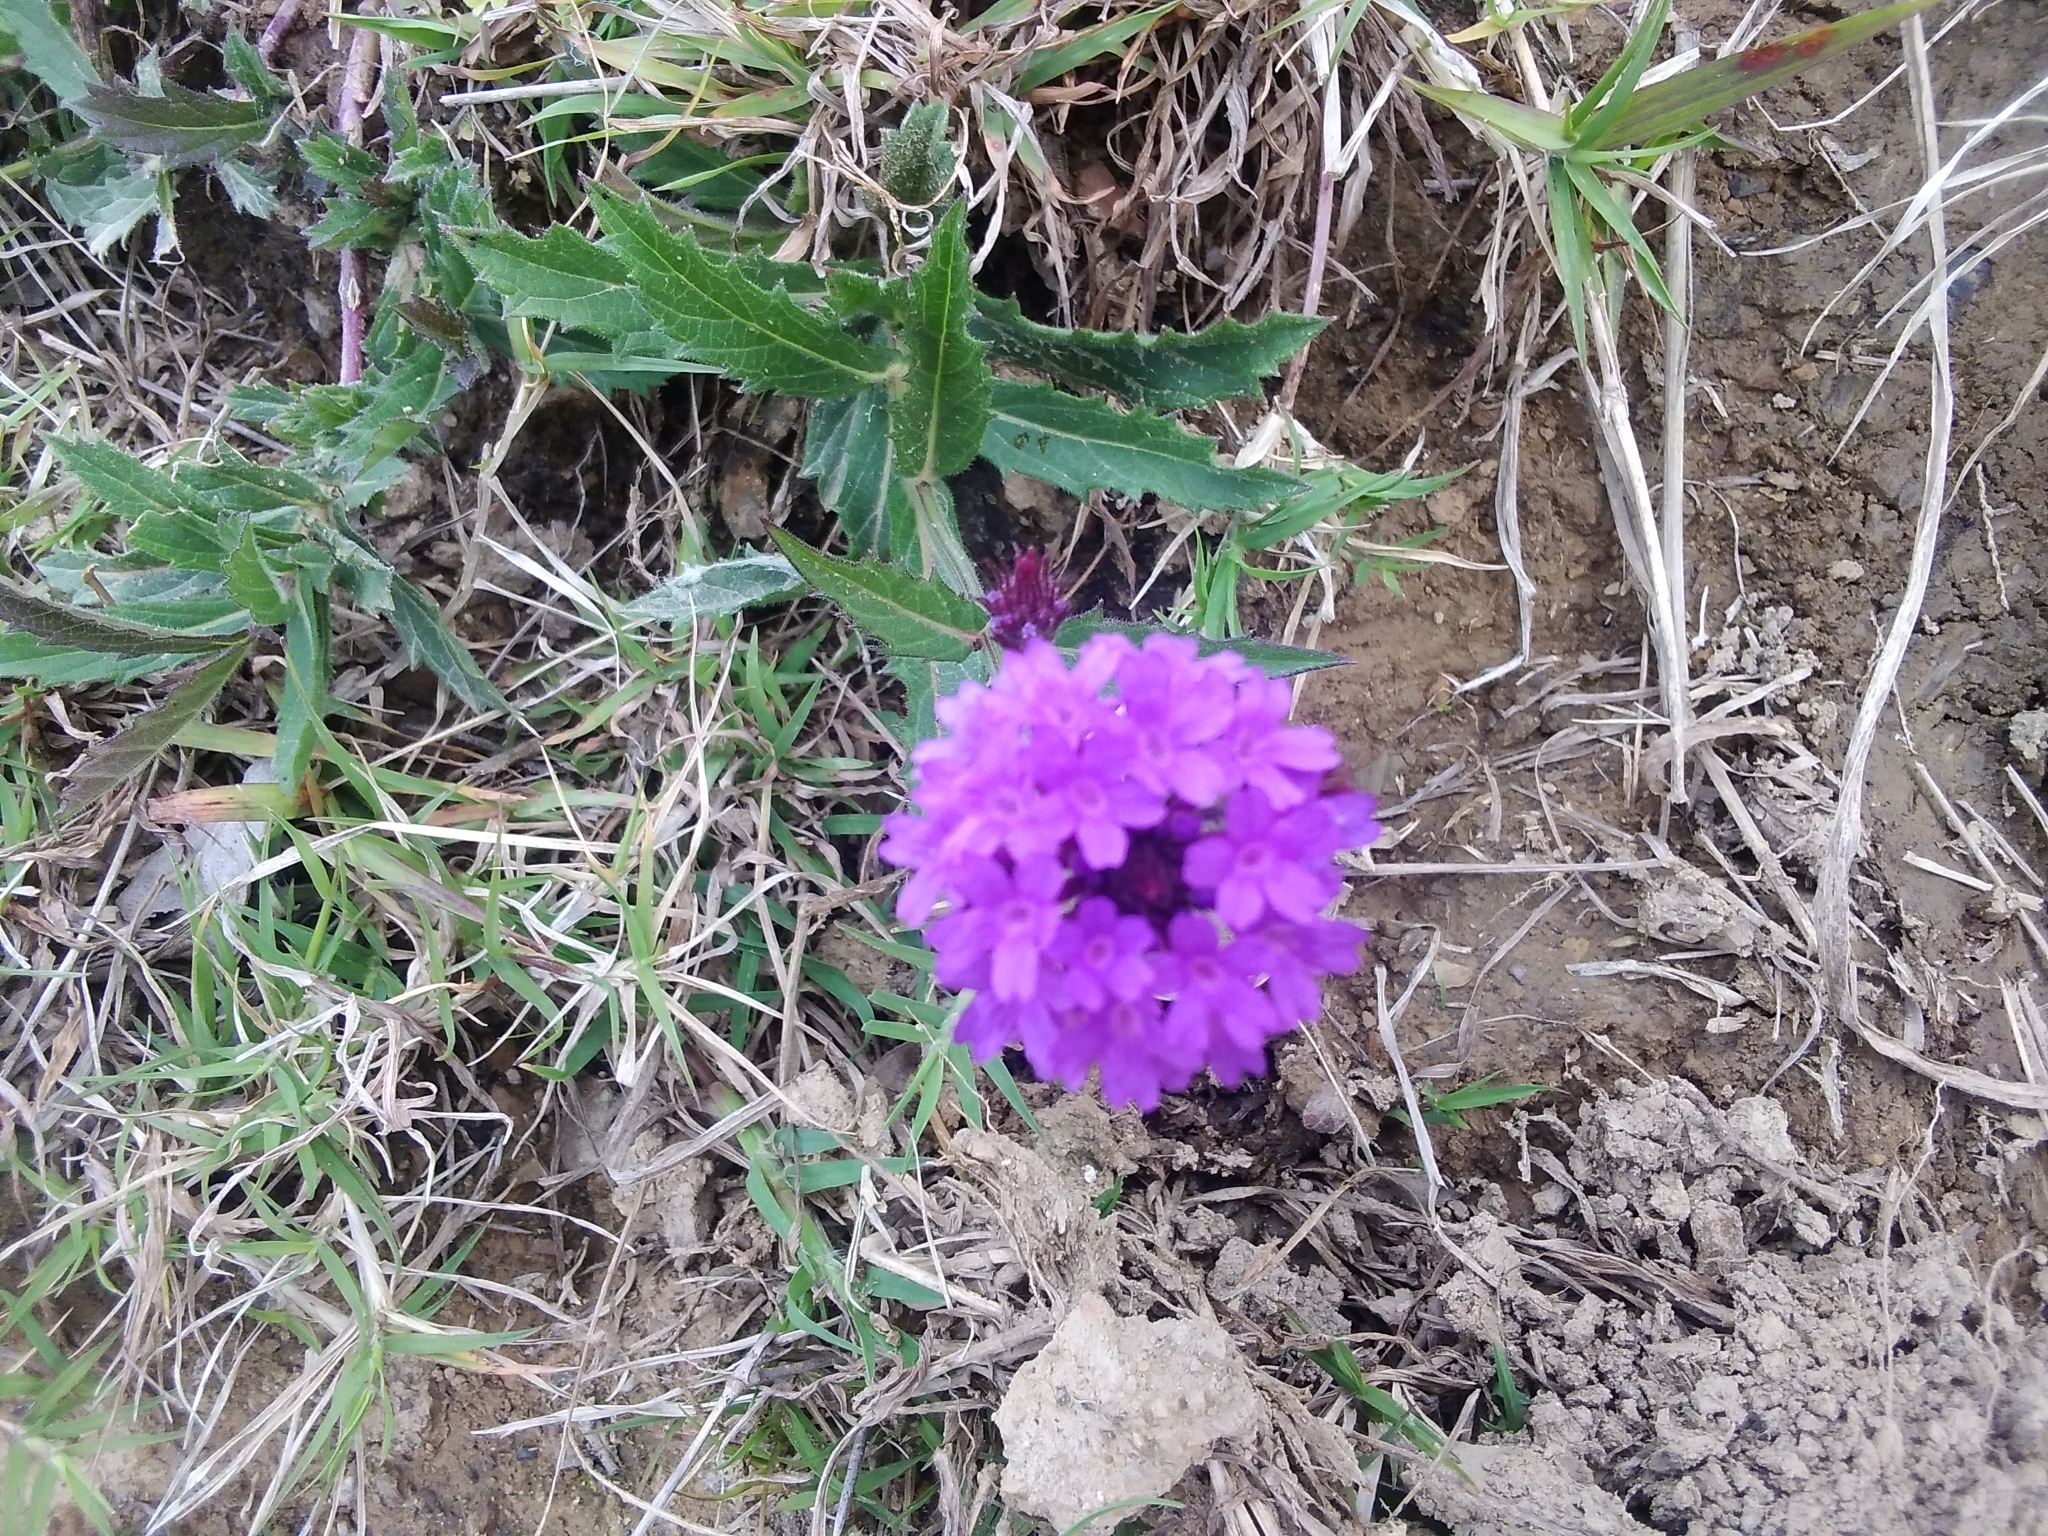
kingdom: Plantae
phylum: Tracheophyta
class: Magnoliopsida
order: Lamiales
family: Verbenaceae
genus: Verbena
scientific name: Verbena rigida
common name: Slender vervain
